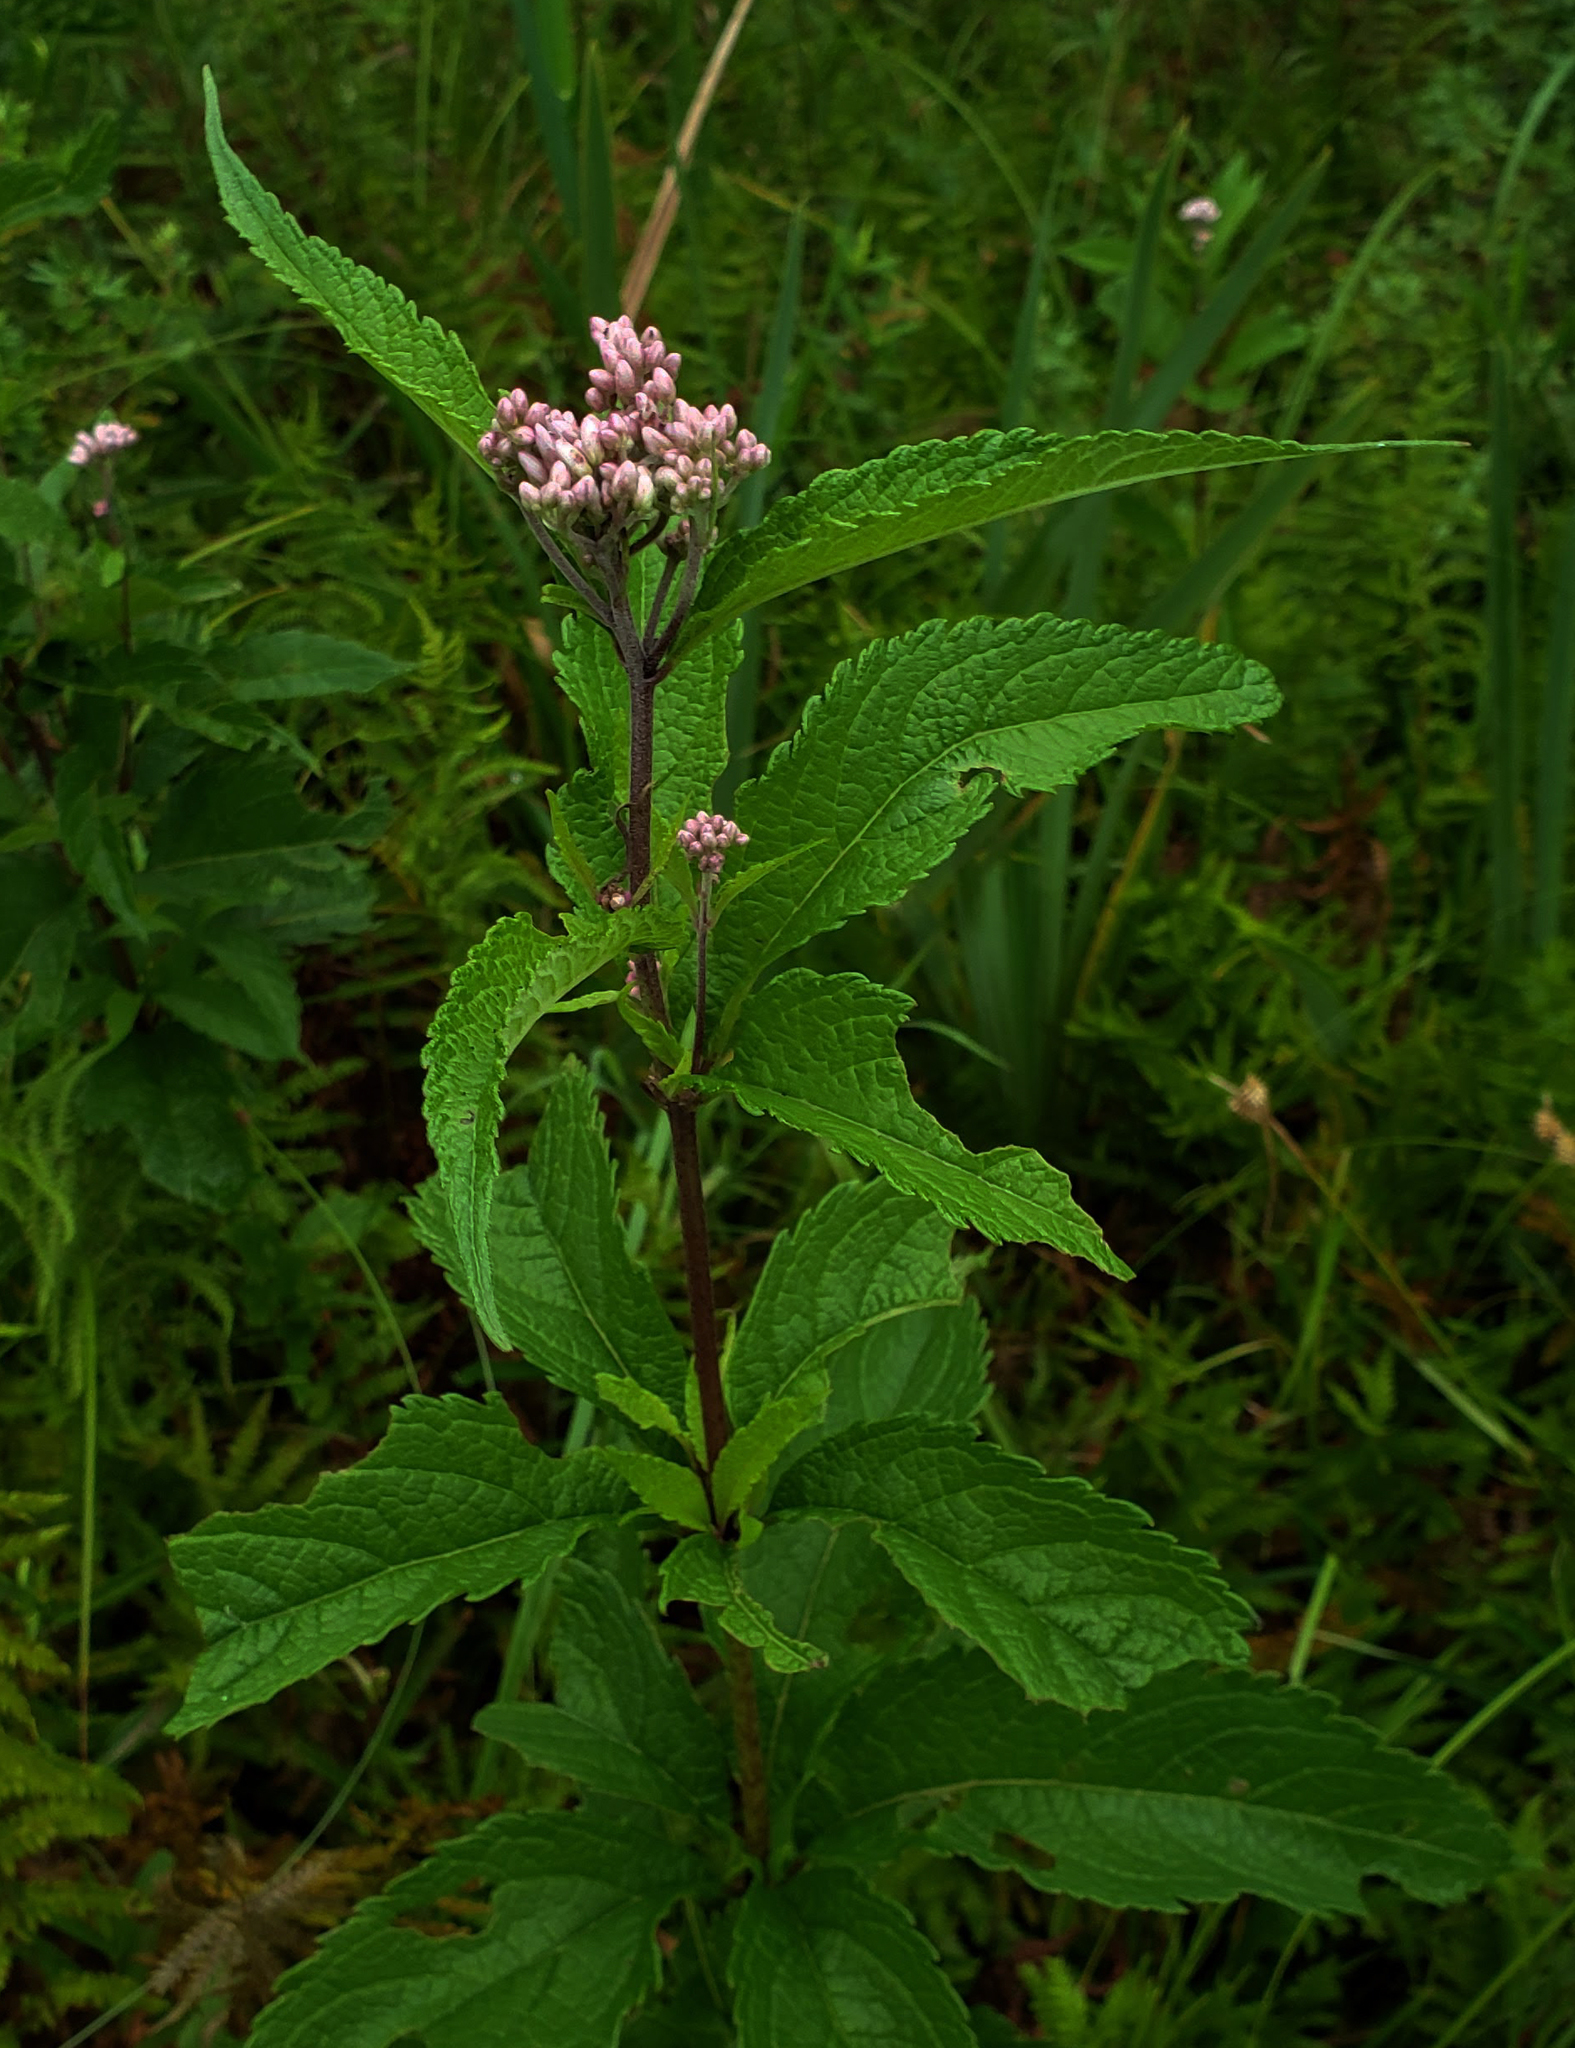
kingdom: Plantae
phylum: Tracheophyta
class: Magnoliopsida
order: Asterales
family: Asteraceae
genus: Eutrochium
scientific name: Eutrochium maculatum
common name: Spotted joe pye weed
